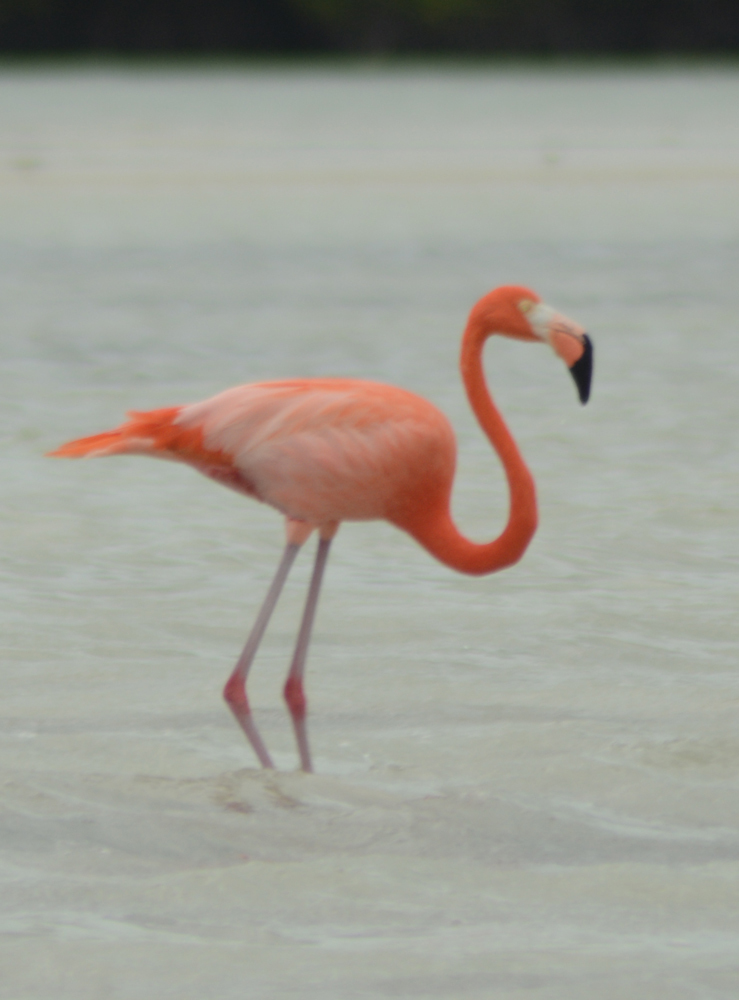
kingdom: Animalia
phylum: Chordata
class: Aves
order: Phoenicopteriformes
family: Phoenicopteridae
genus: Phoenicopterus
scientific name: Phoenicopterus ruber
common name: American flamingo
